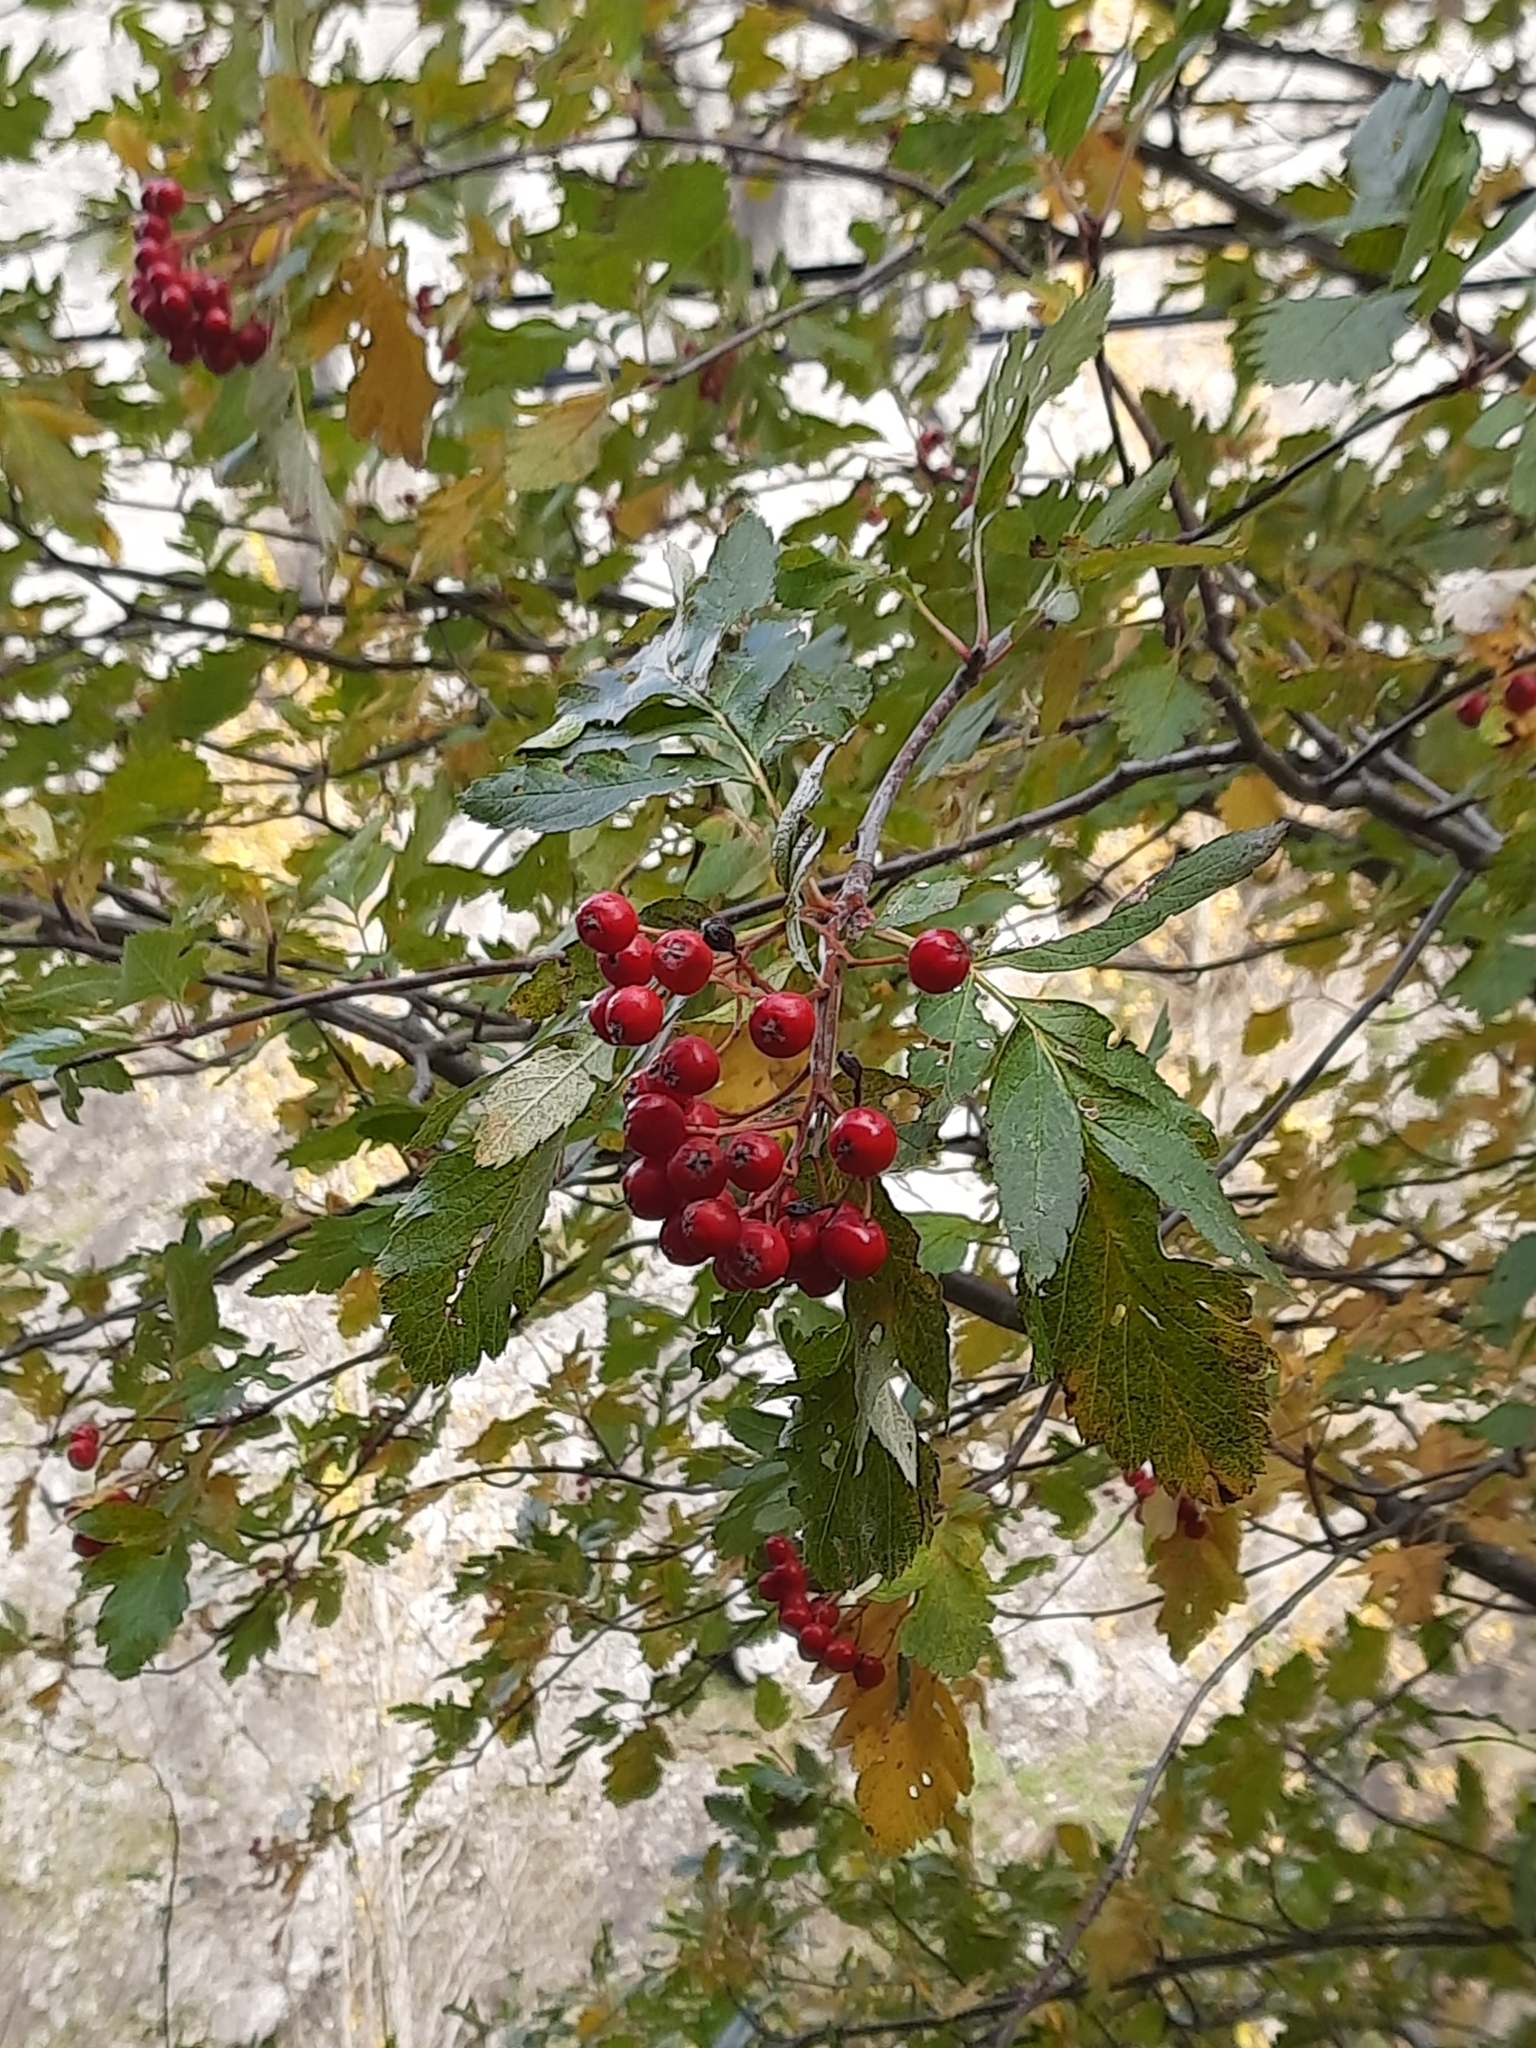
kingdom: Plantae
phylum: Tracheophyta
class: Magnoliopsida
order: Rosales
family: Rosaceae
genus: Hedlundia
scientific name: Hedlundia hybrida
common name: Swedish service-tree
